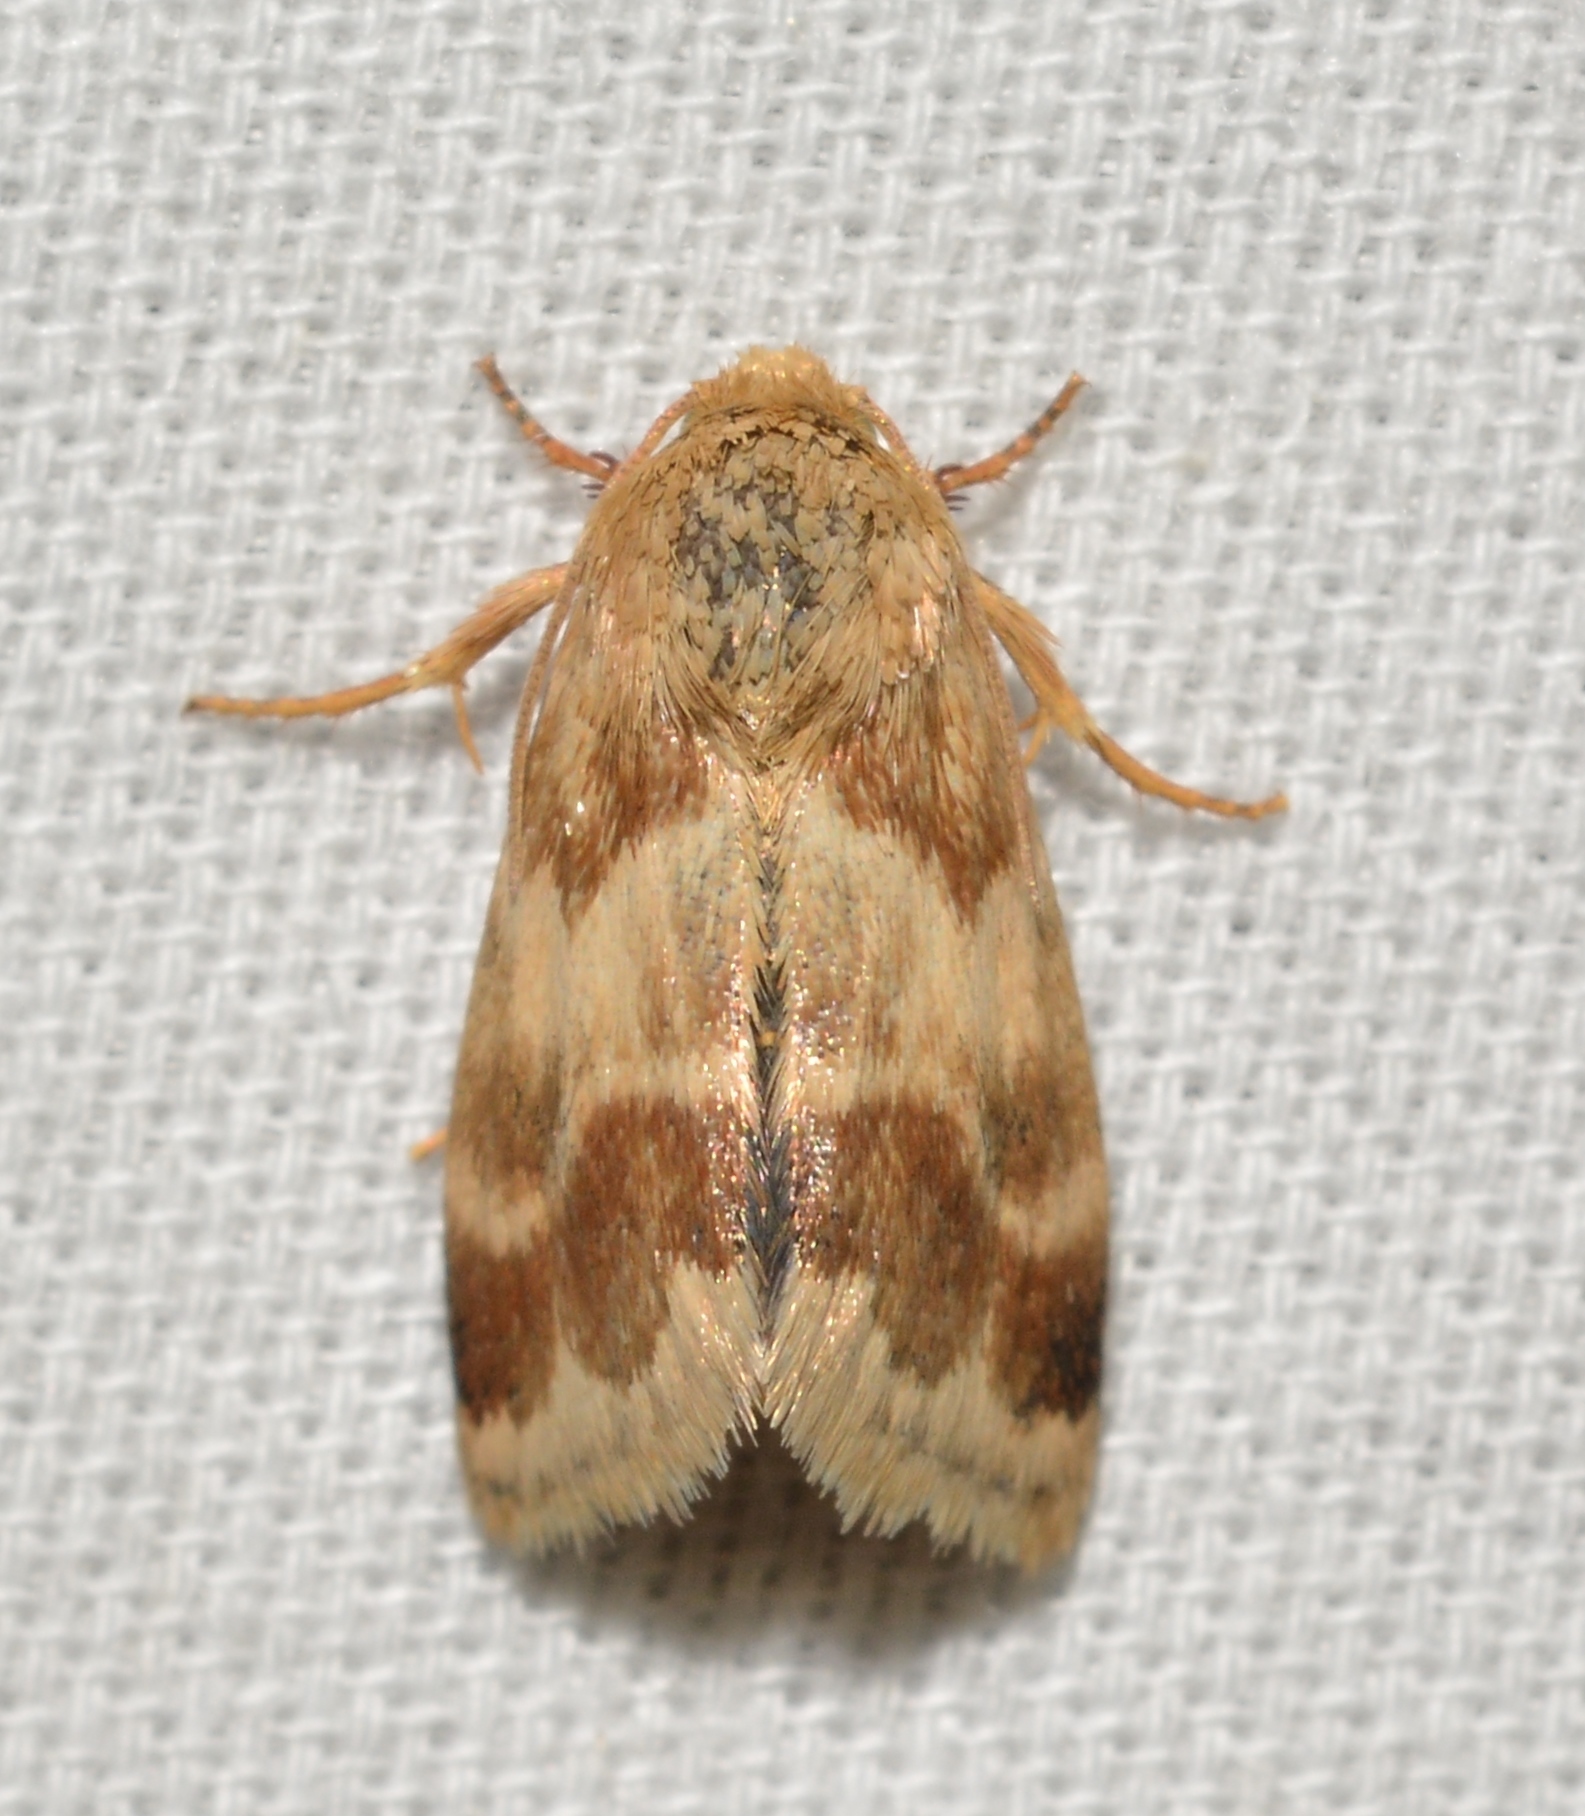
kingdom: Animalia
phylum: Arthropoda
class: Insecta
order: Lepidoptera
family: Noctuidae
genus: Schinia
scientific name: Schinia lynx
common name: Lynx flower moth
